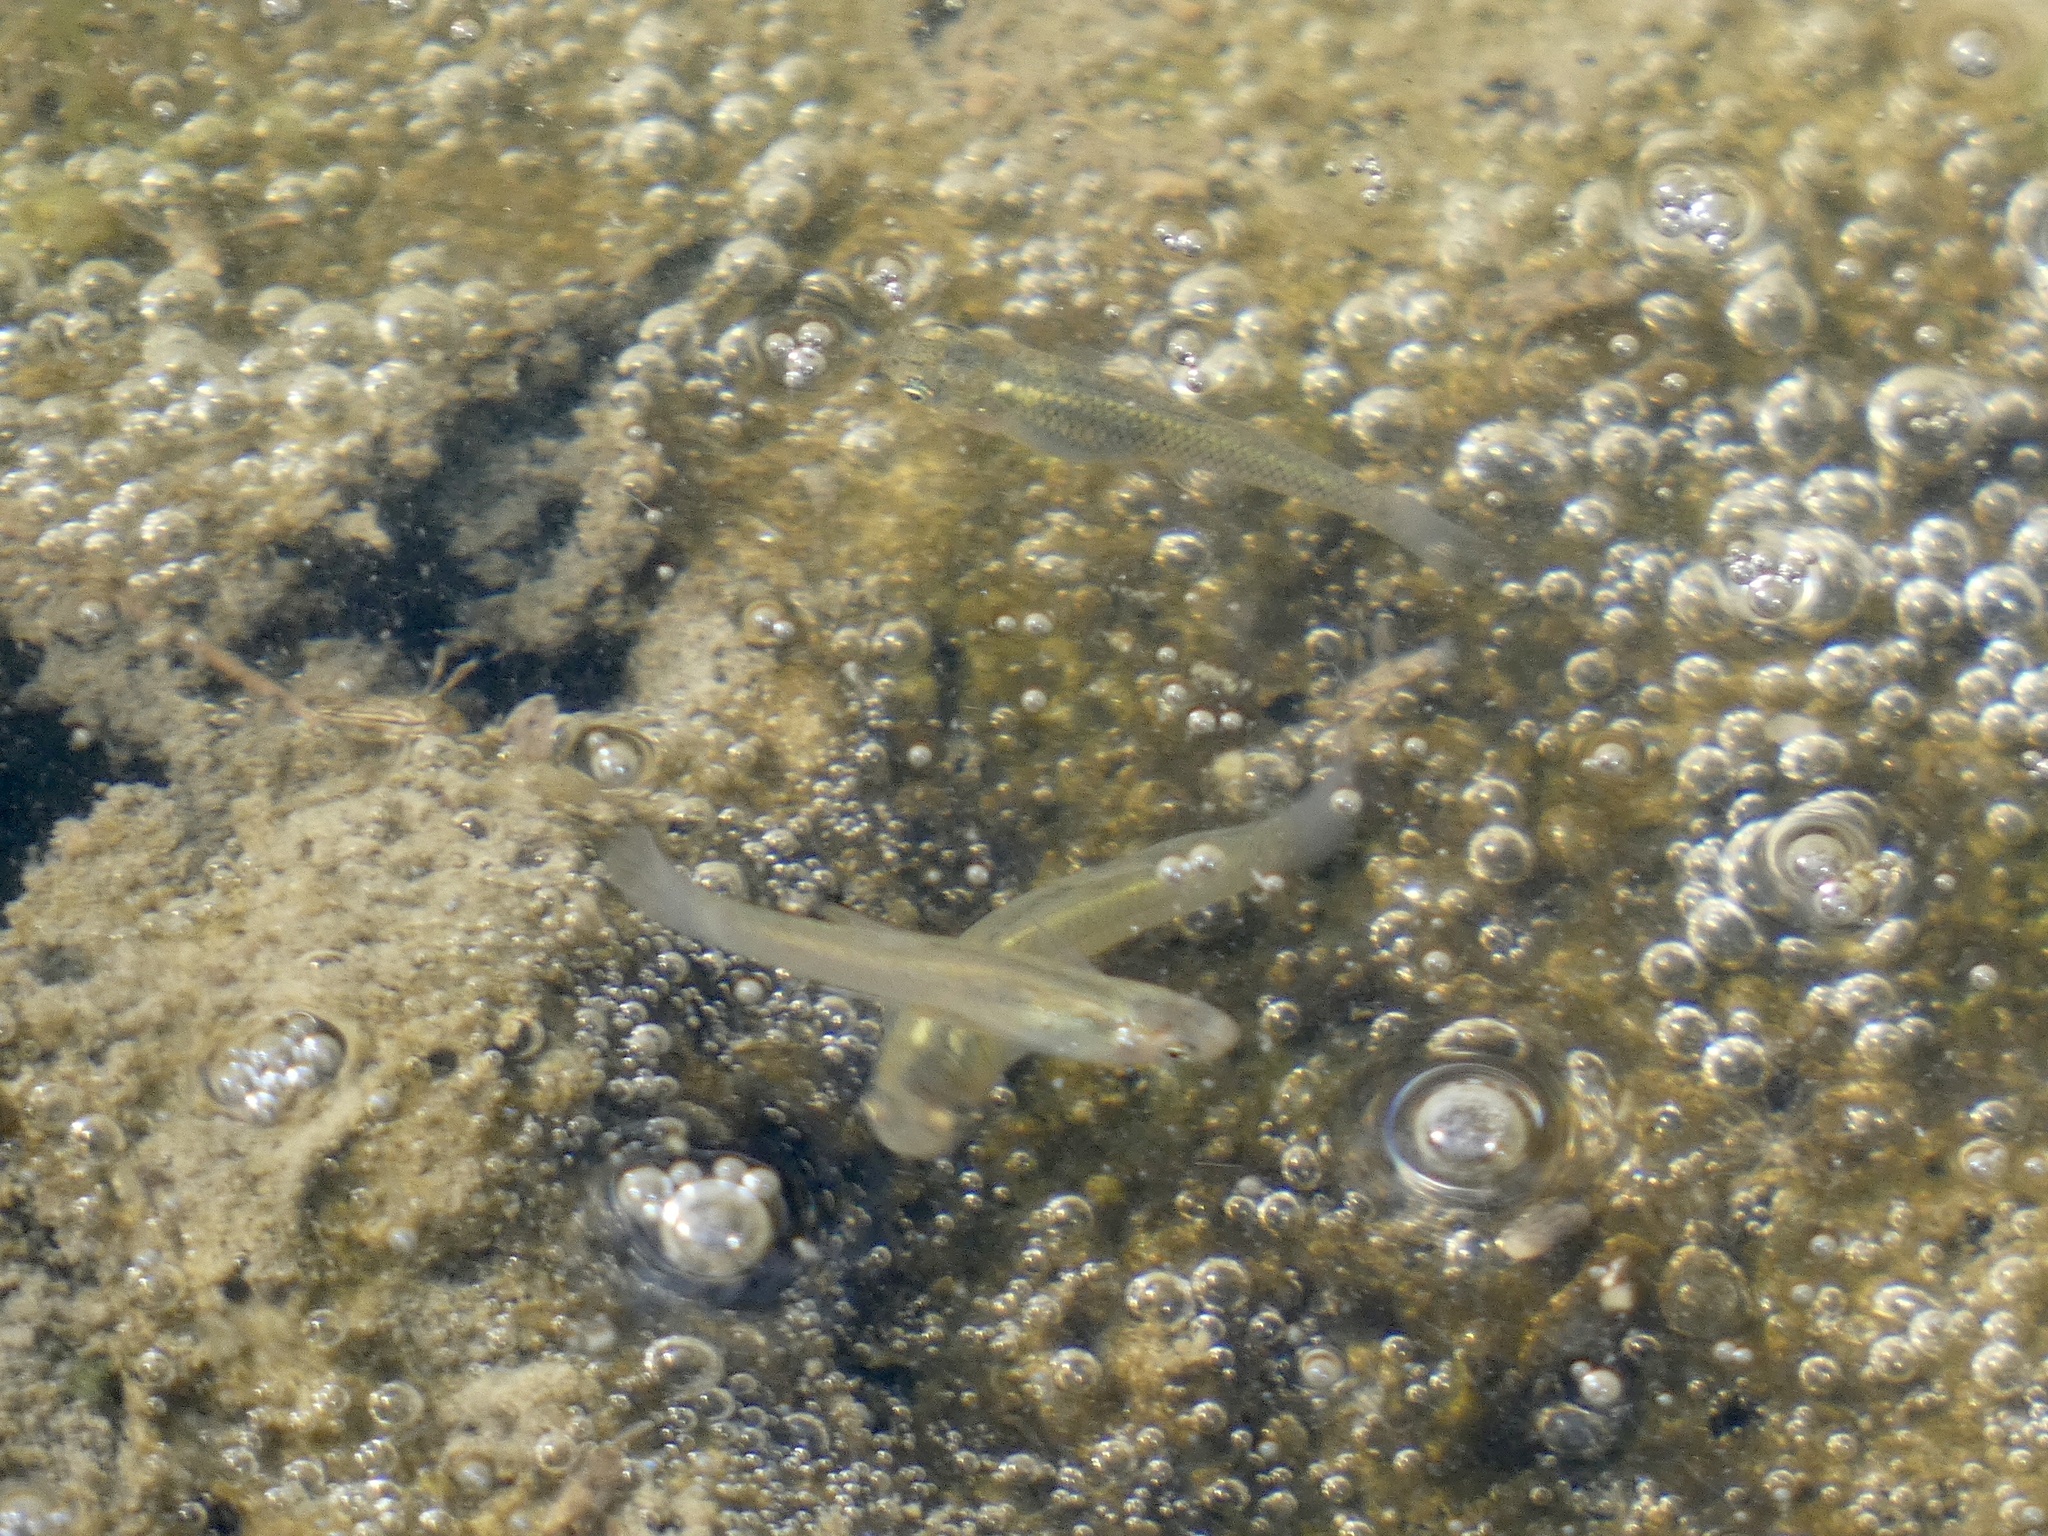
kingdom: Animalia
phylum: Chordata
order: Cyprinodontiformes
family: Poeciliidae
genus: Gambusia
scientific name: Gambusia affinis
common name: Mosquitofish
